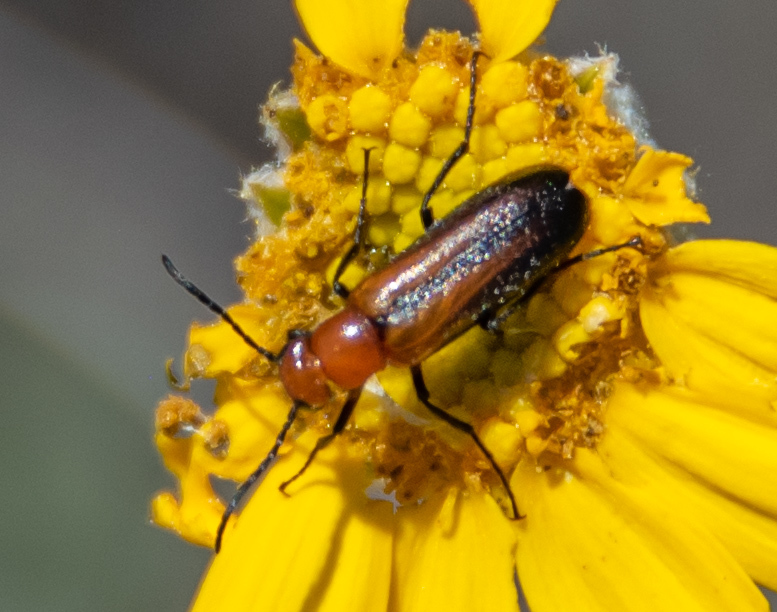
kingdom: Animalia
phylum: Arthropoda
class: Insecta
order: Coleoptera
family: Meloidae
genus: Nemognatha
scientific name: Nemognatha nigripennis
